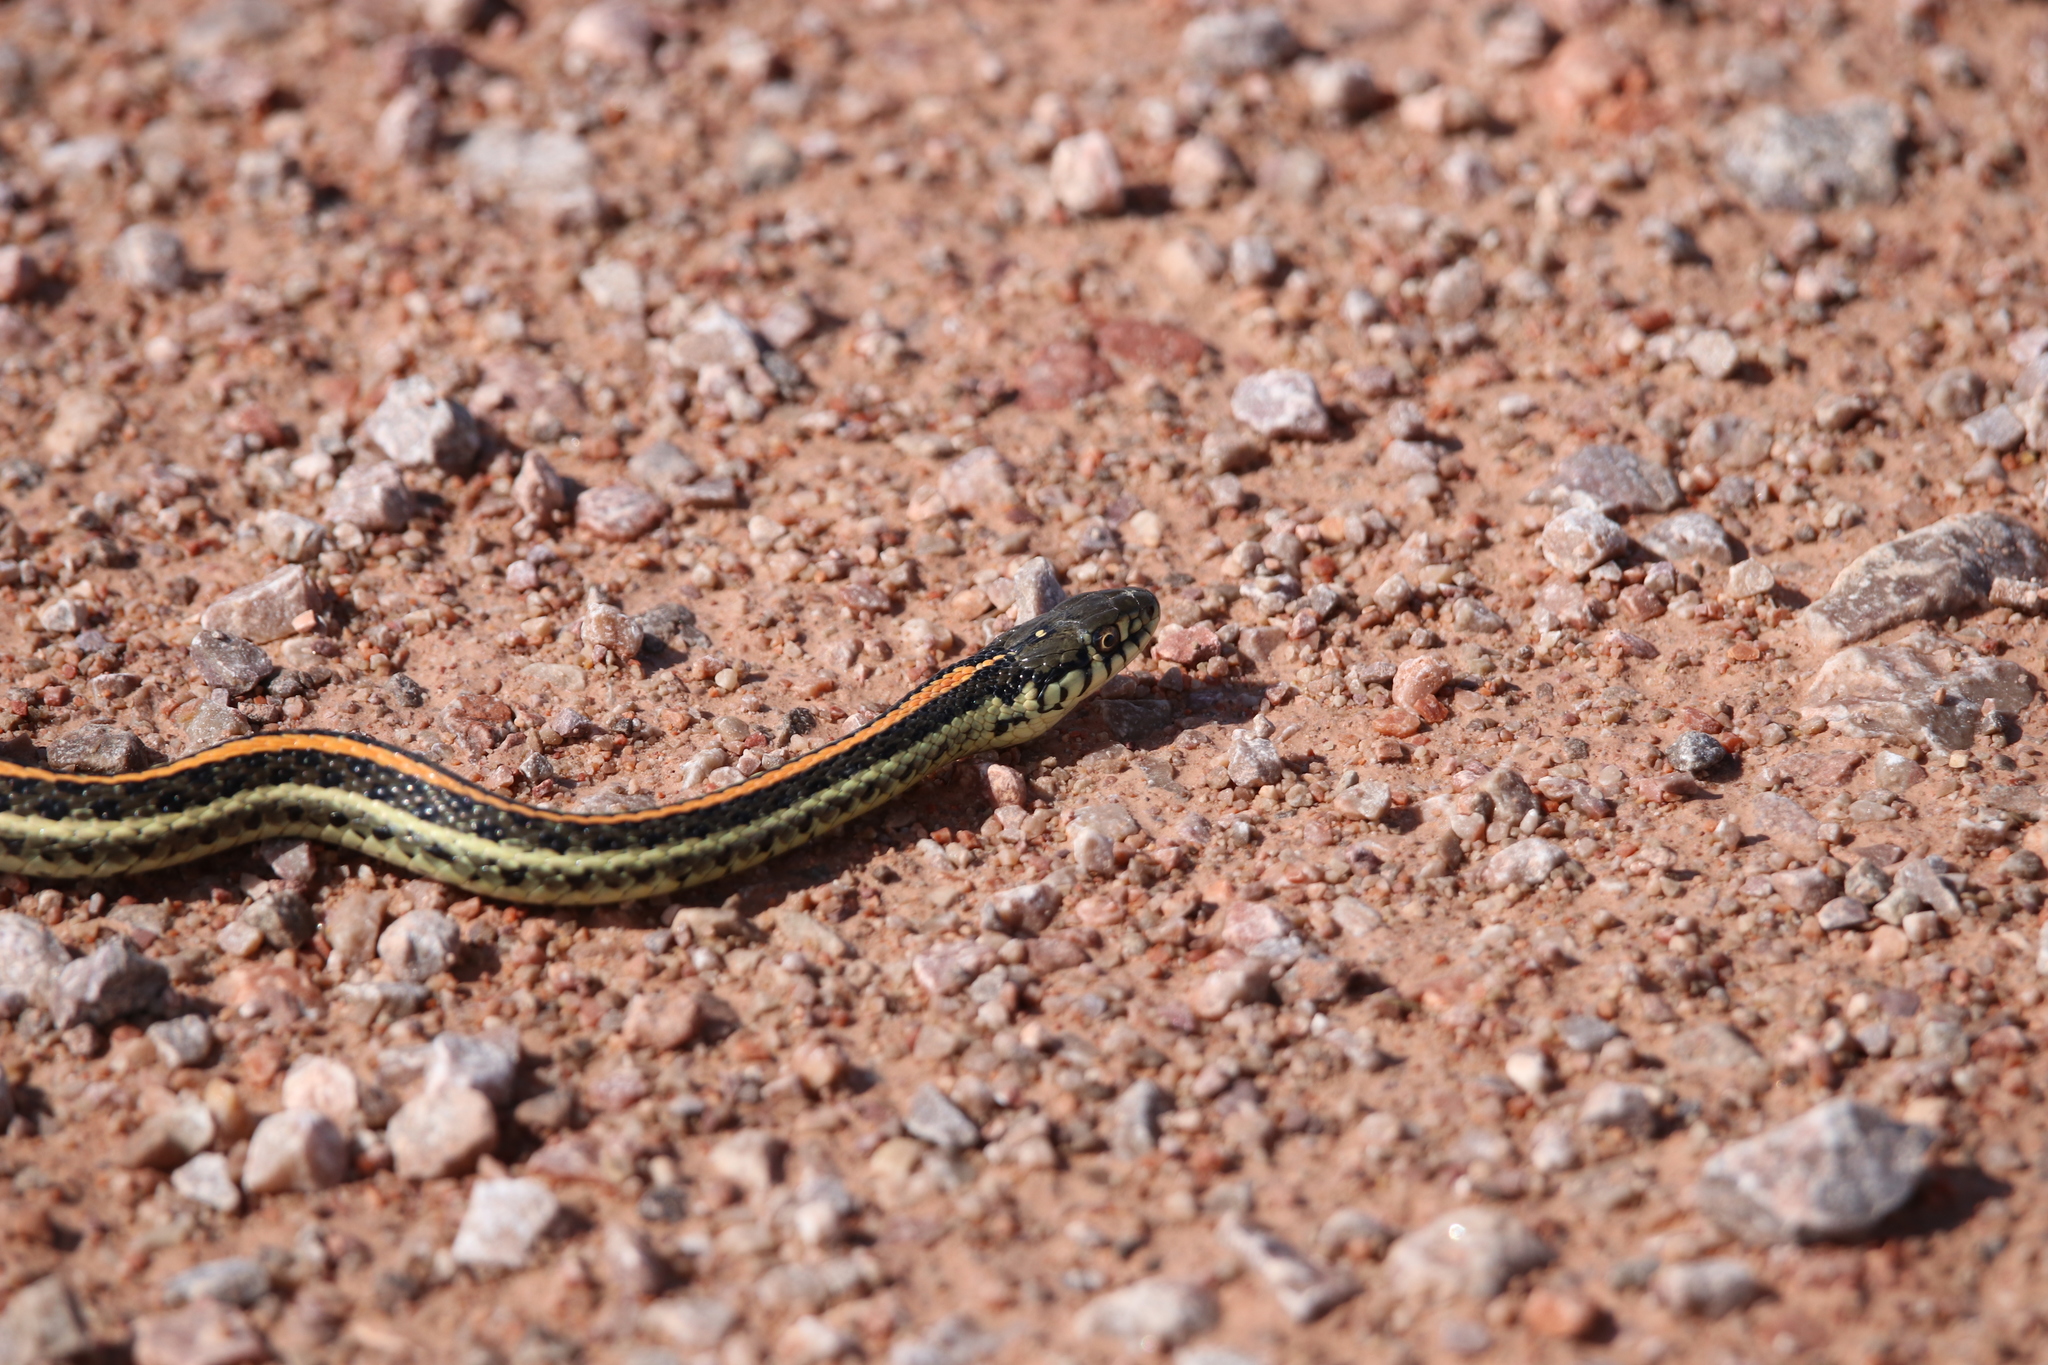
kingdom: Animalia
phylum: Chordata
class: Squamata
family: Colubridae
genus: Thamnophis
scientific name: Thamnophis radix
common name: Plains garter snake
